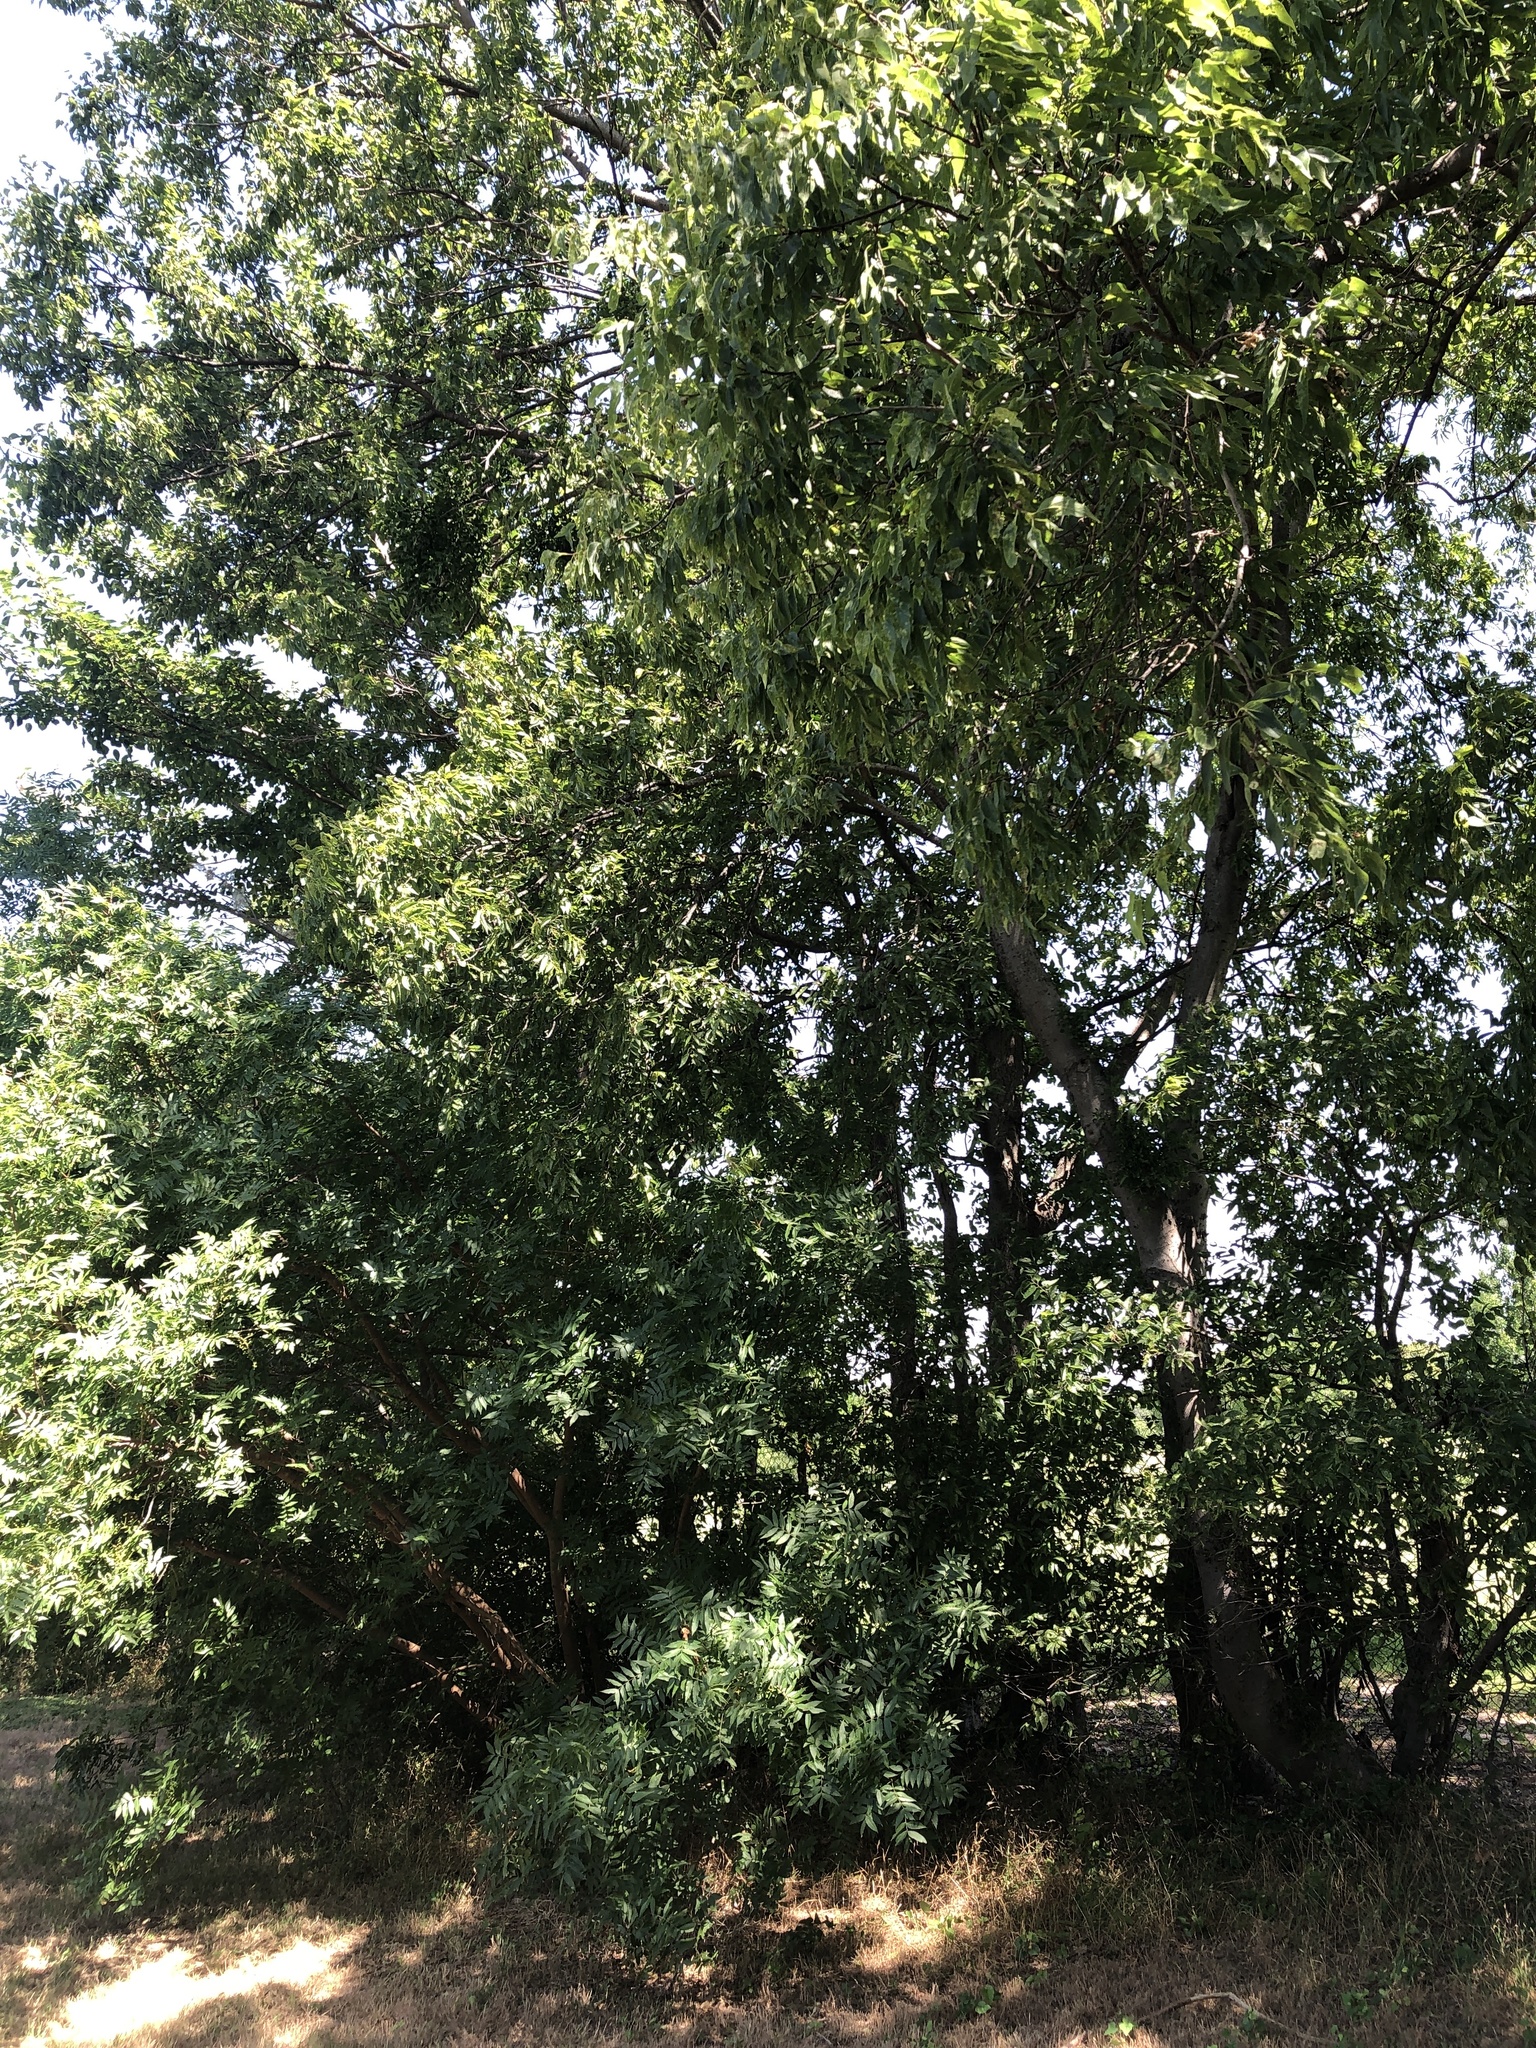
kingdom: Plantae
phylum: Tracheophyta
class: Magnoliopsida
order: Rosales
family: Cannabaceae
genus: Celtis
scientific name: Celtis laevigata
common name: Sugarberry
